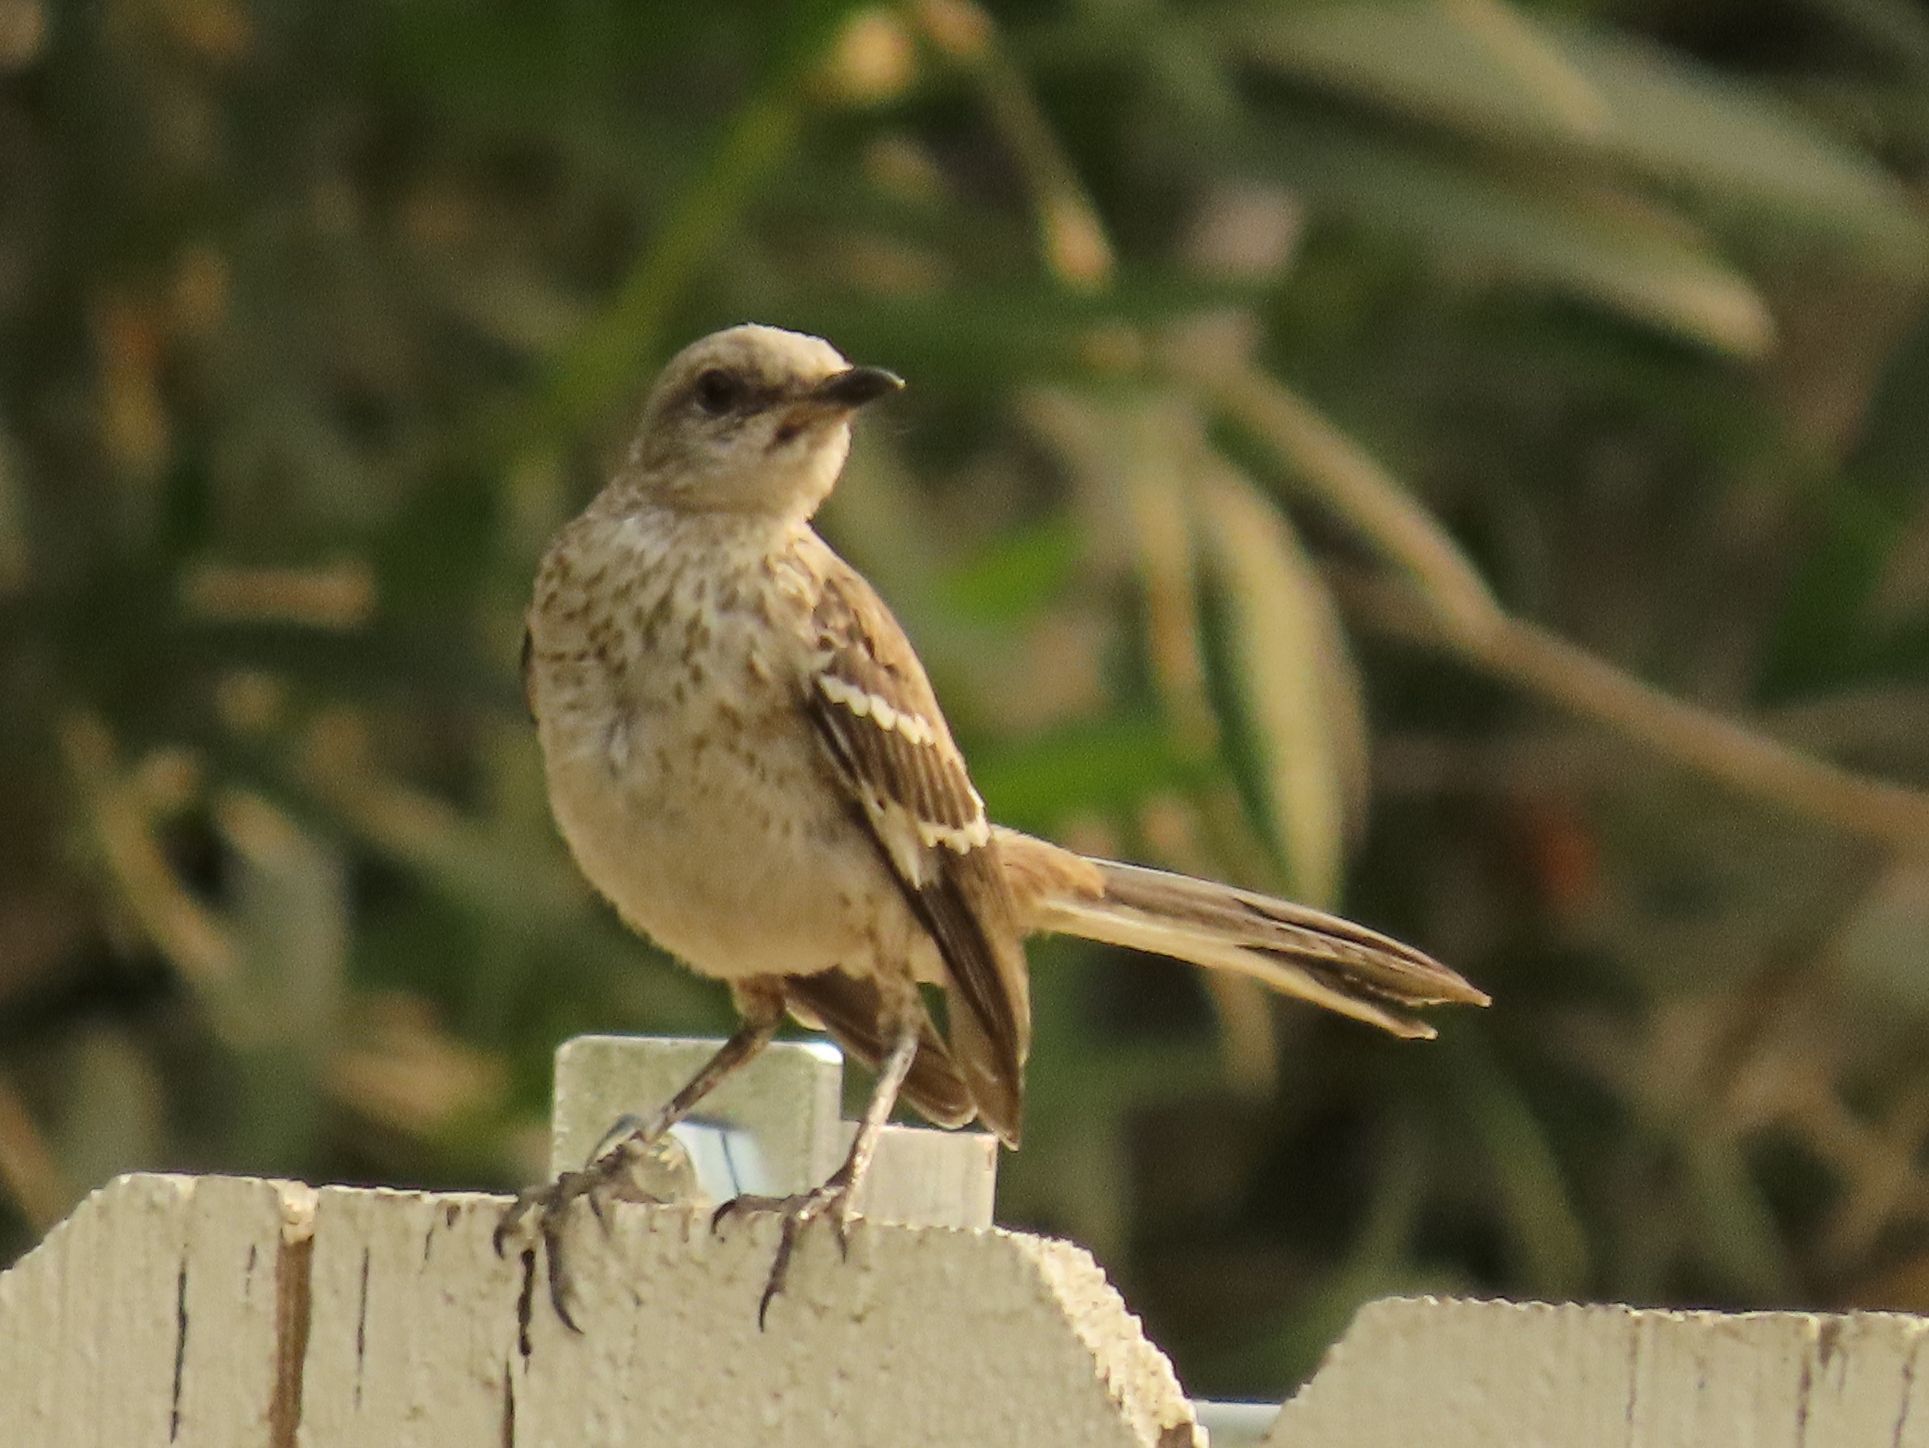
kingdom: Animalia
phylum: Chordata
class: Aves
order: Passeriformes
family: Mimidae
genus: Mimus
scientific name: Mimus polyglottos
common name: Northern mockingbird
